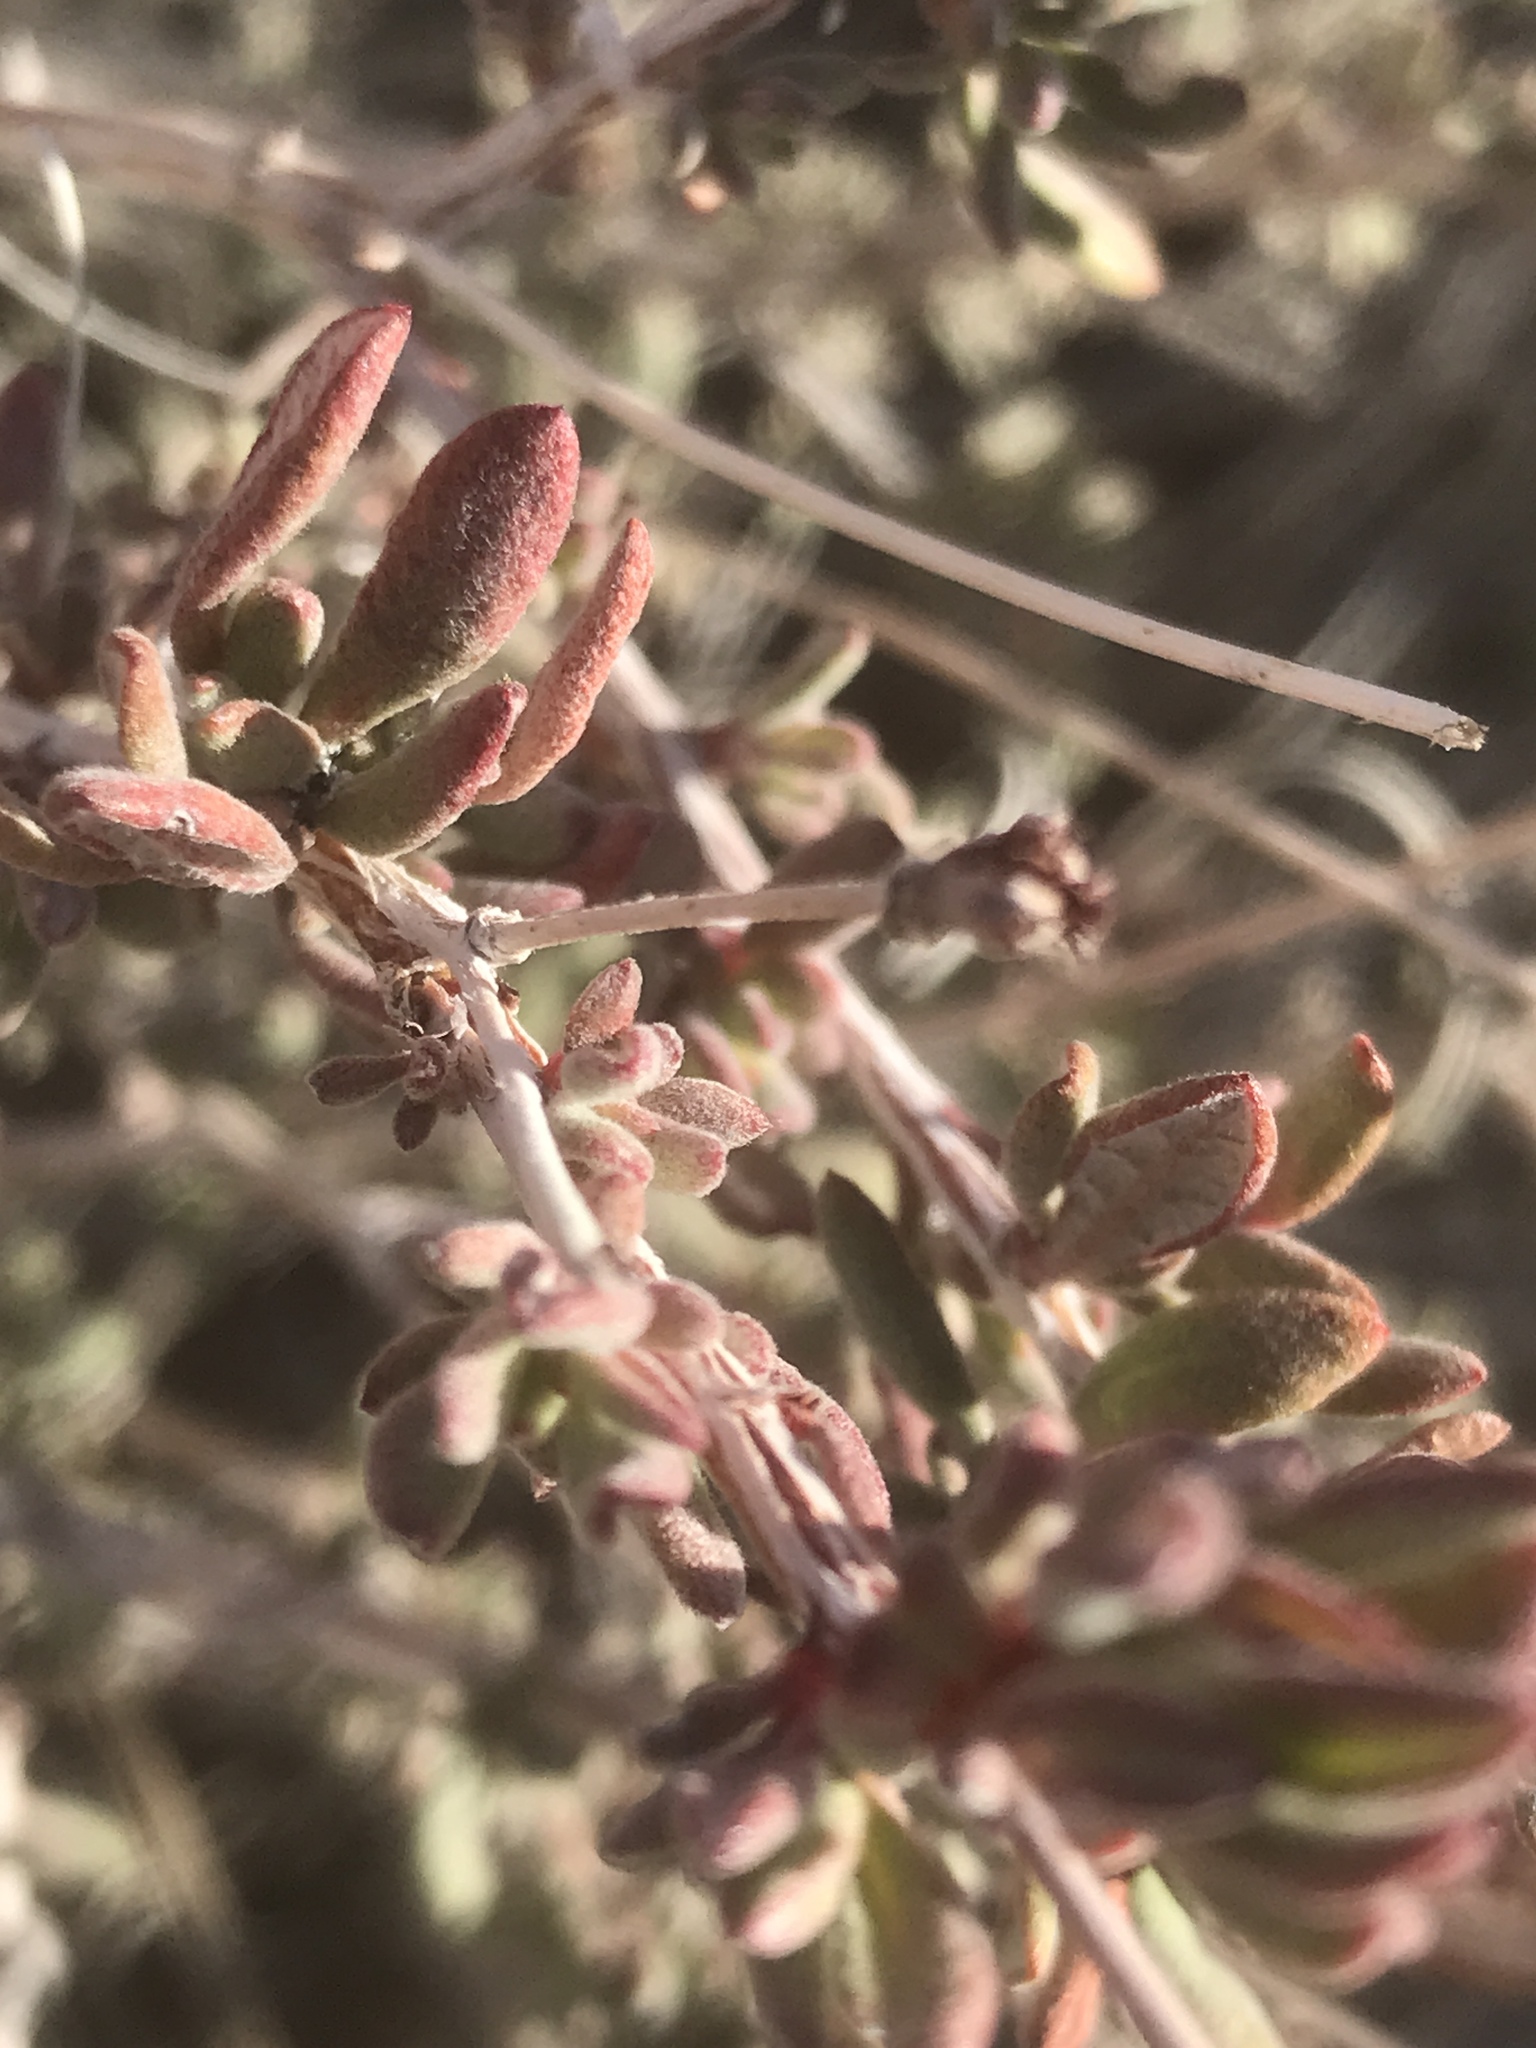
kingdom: Plantae
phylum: Tracheophyta
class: Magnoliopsida
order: Caryophyllales
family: Polygonaceae
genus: Eriogonum
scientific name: Eriogonum fasciculatum
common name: California wild buckwheat
